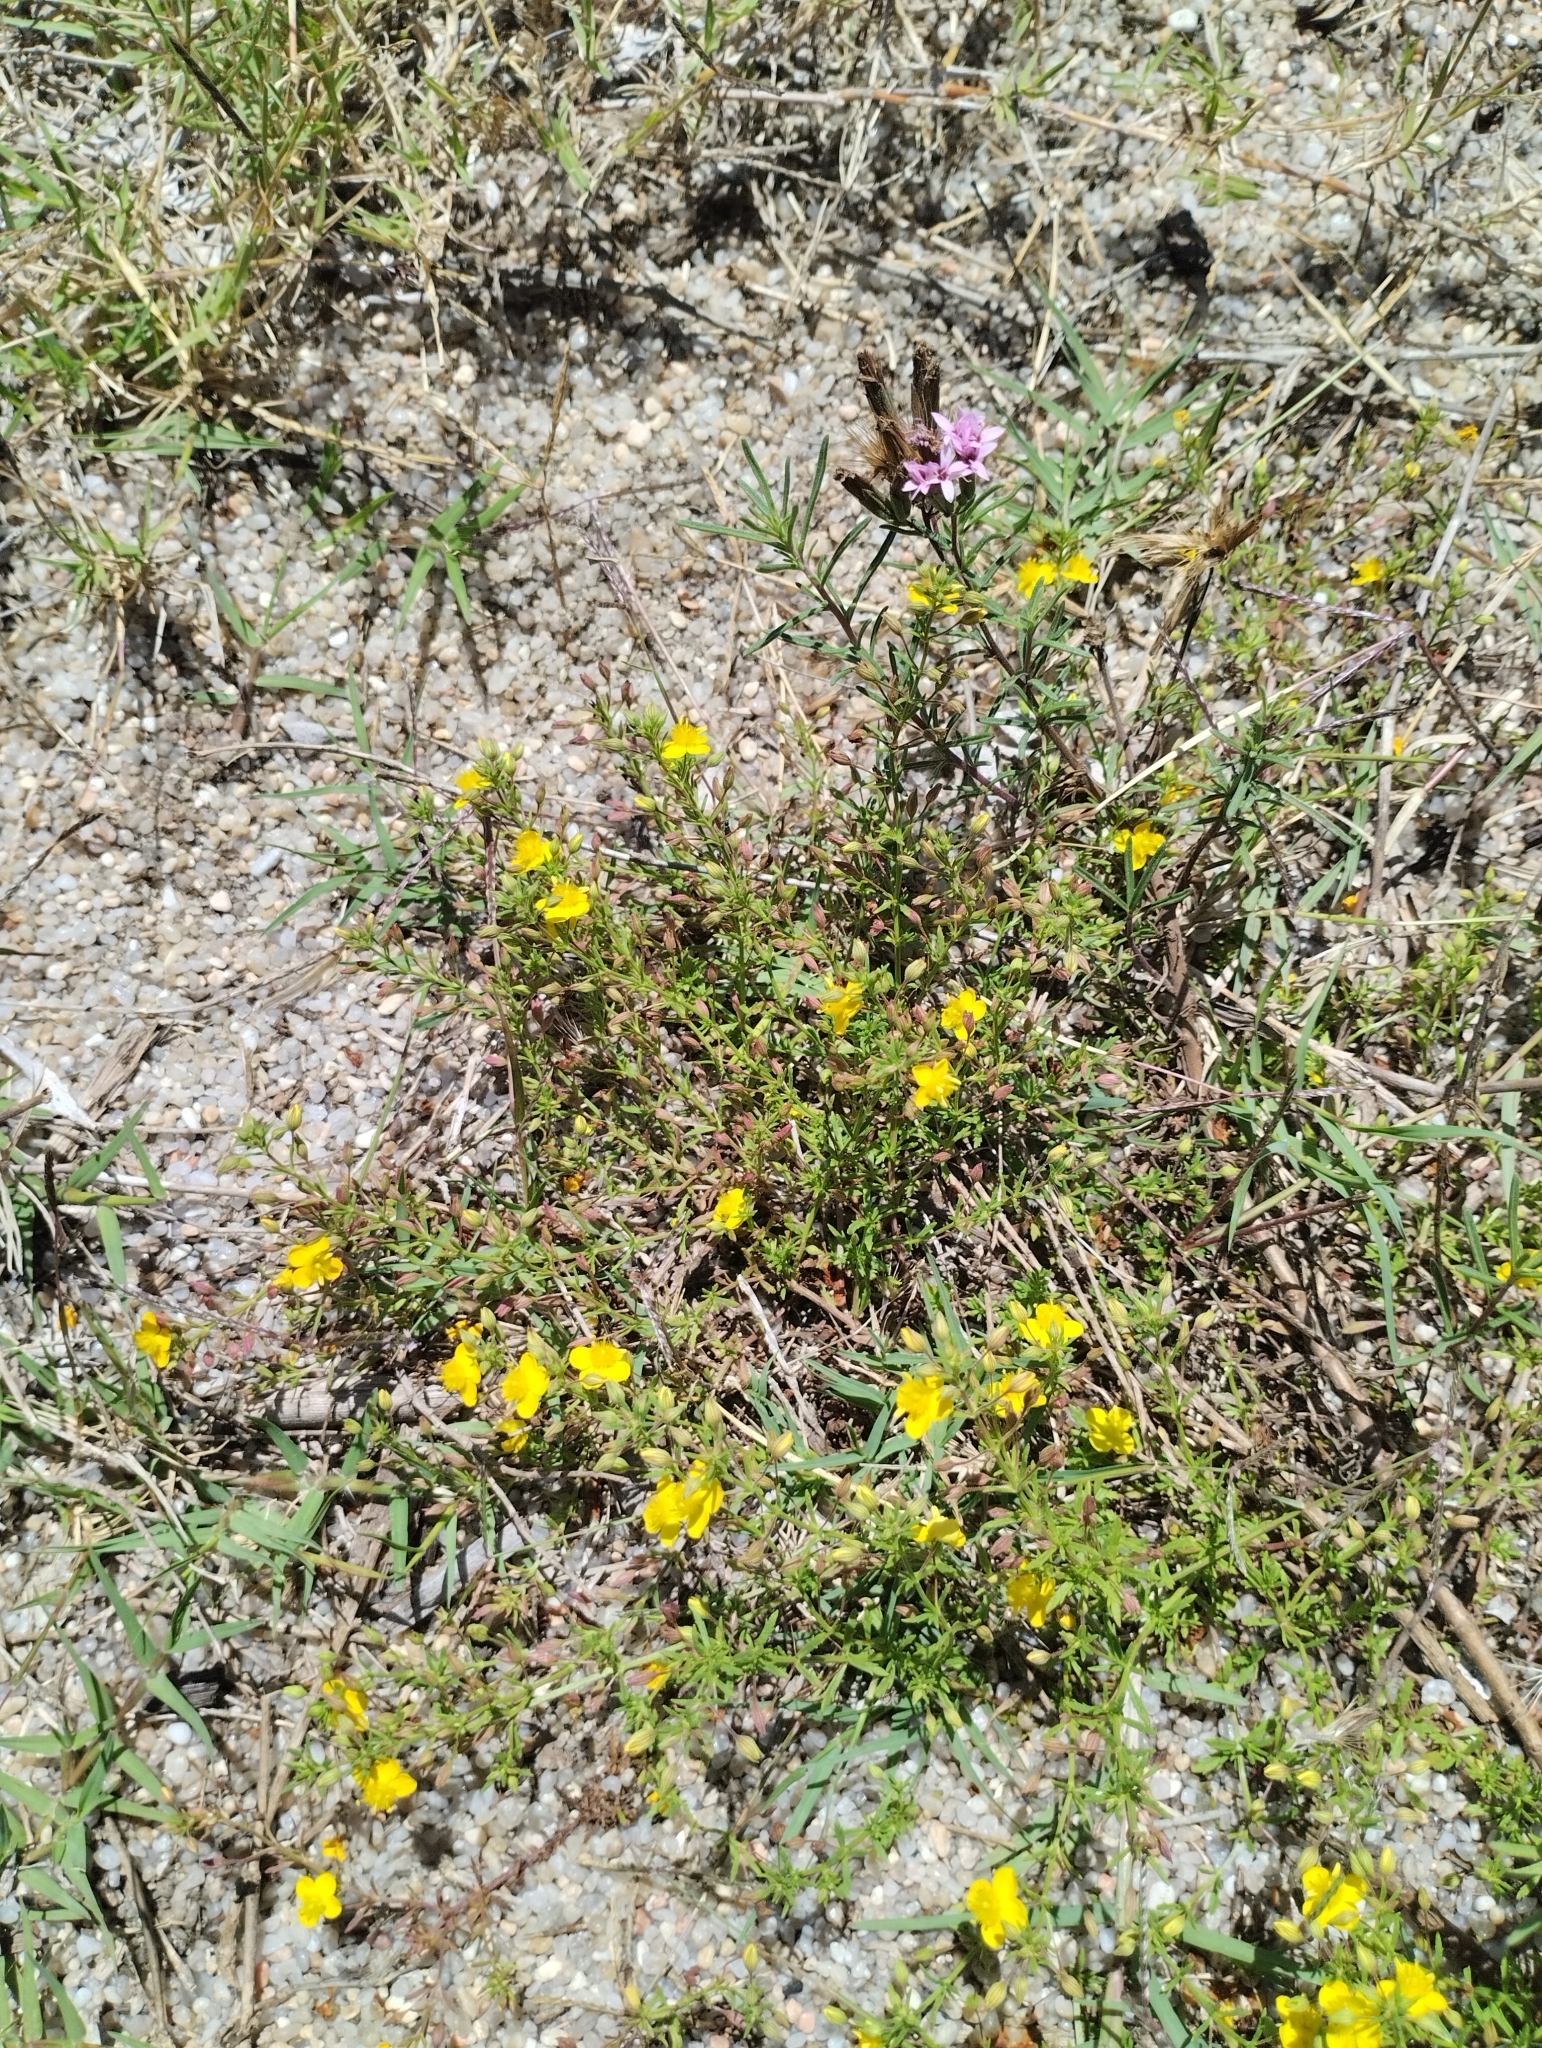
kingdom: Plantae
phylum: Tracheophyta
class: Magnoliopsida
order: Lamiales
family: Plantaginaceae
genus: Scoparia
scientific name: Scoparia montevidensis
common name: Broomwort
